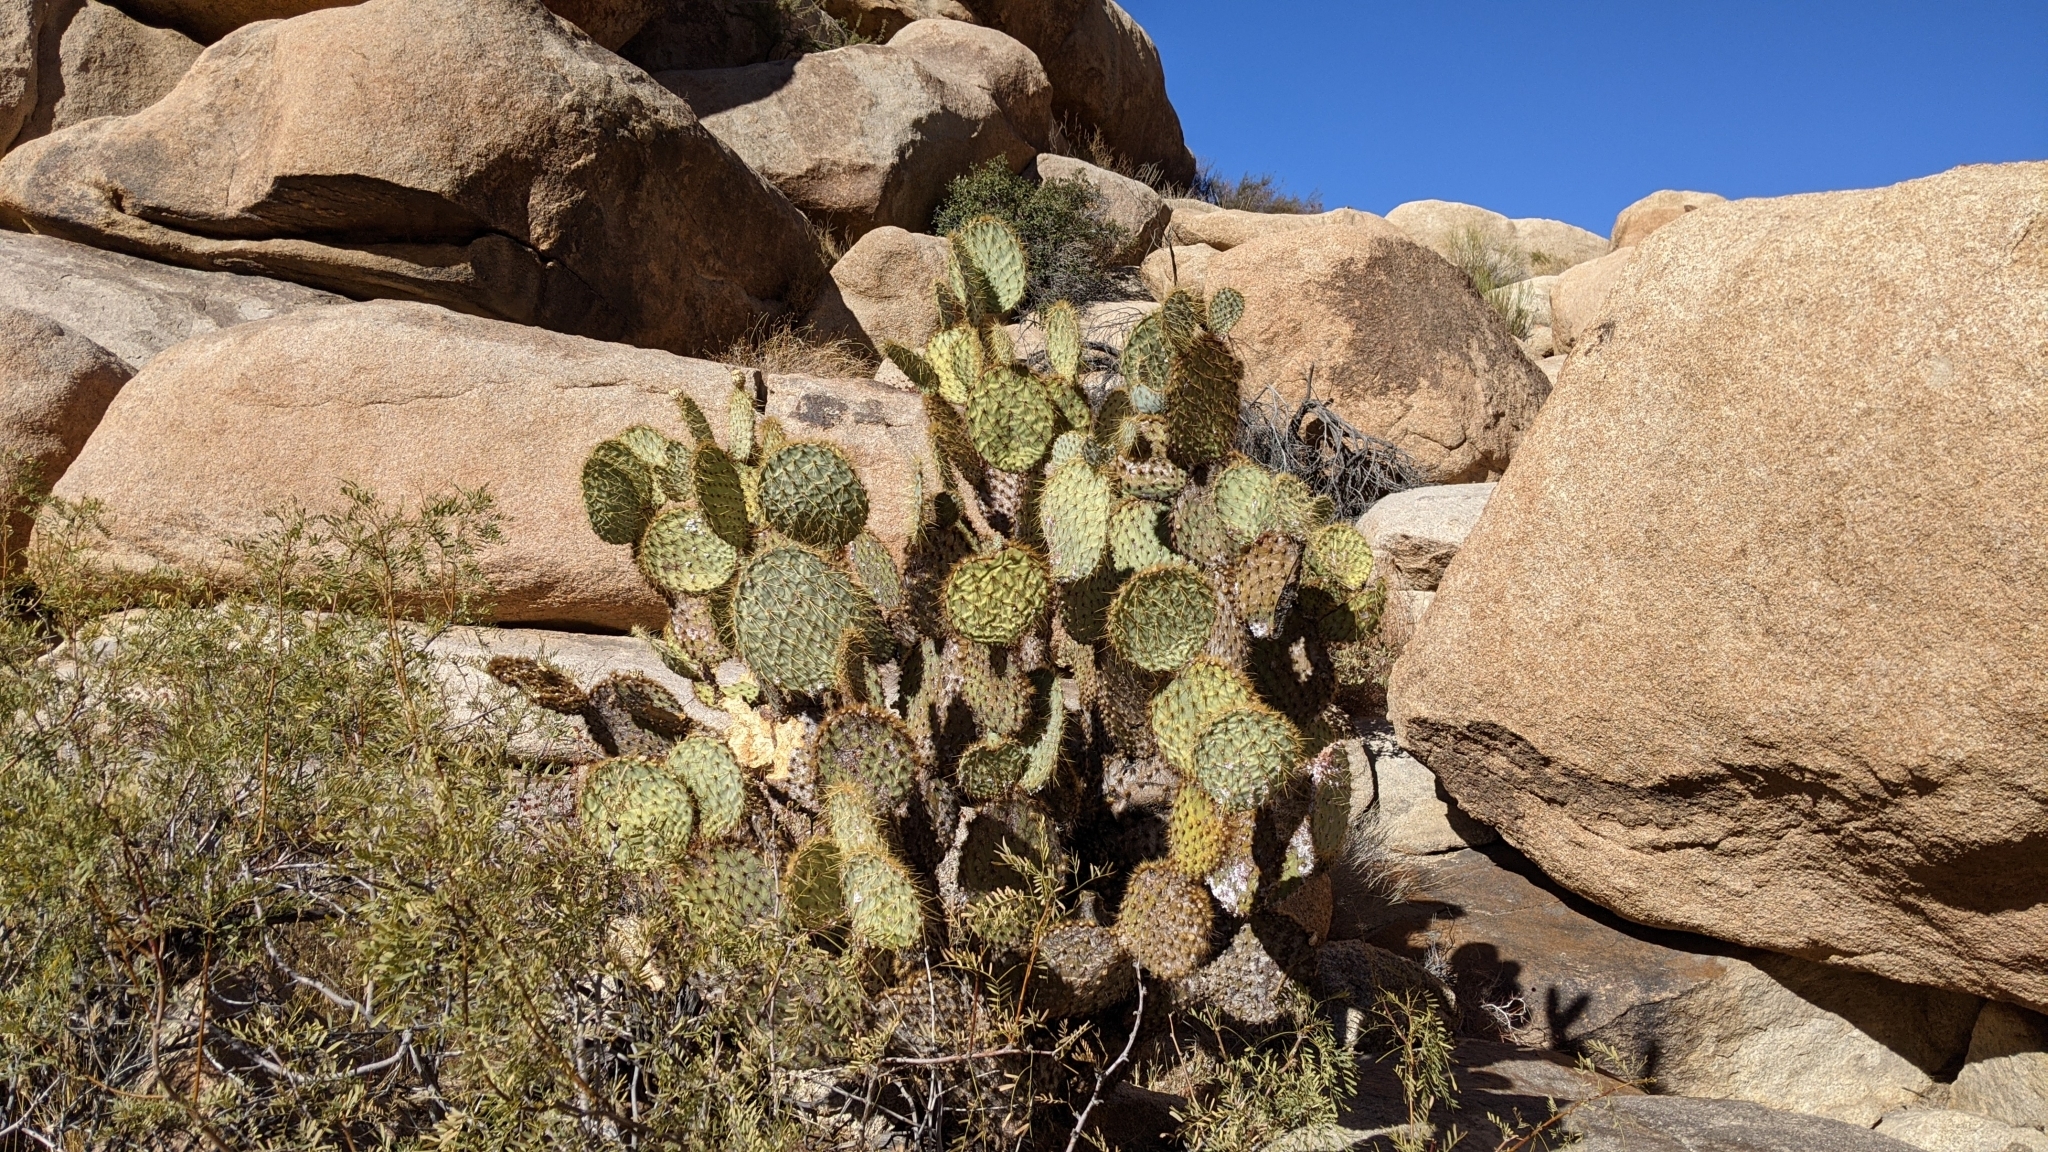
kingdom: Plantae
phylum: Tracheophyta
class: Magnoliopsida
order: Caryophyllales
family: Cactaceae
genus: Opuntia
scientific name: Opuntia chlorotica
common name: Dollar-joint prickly-pear
